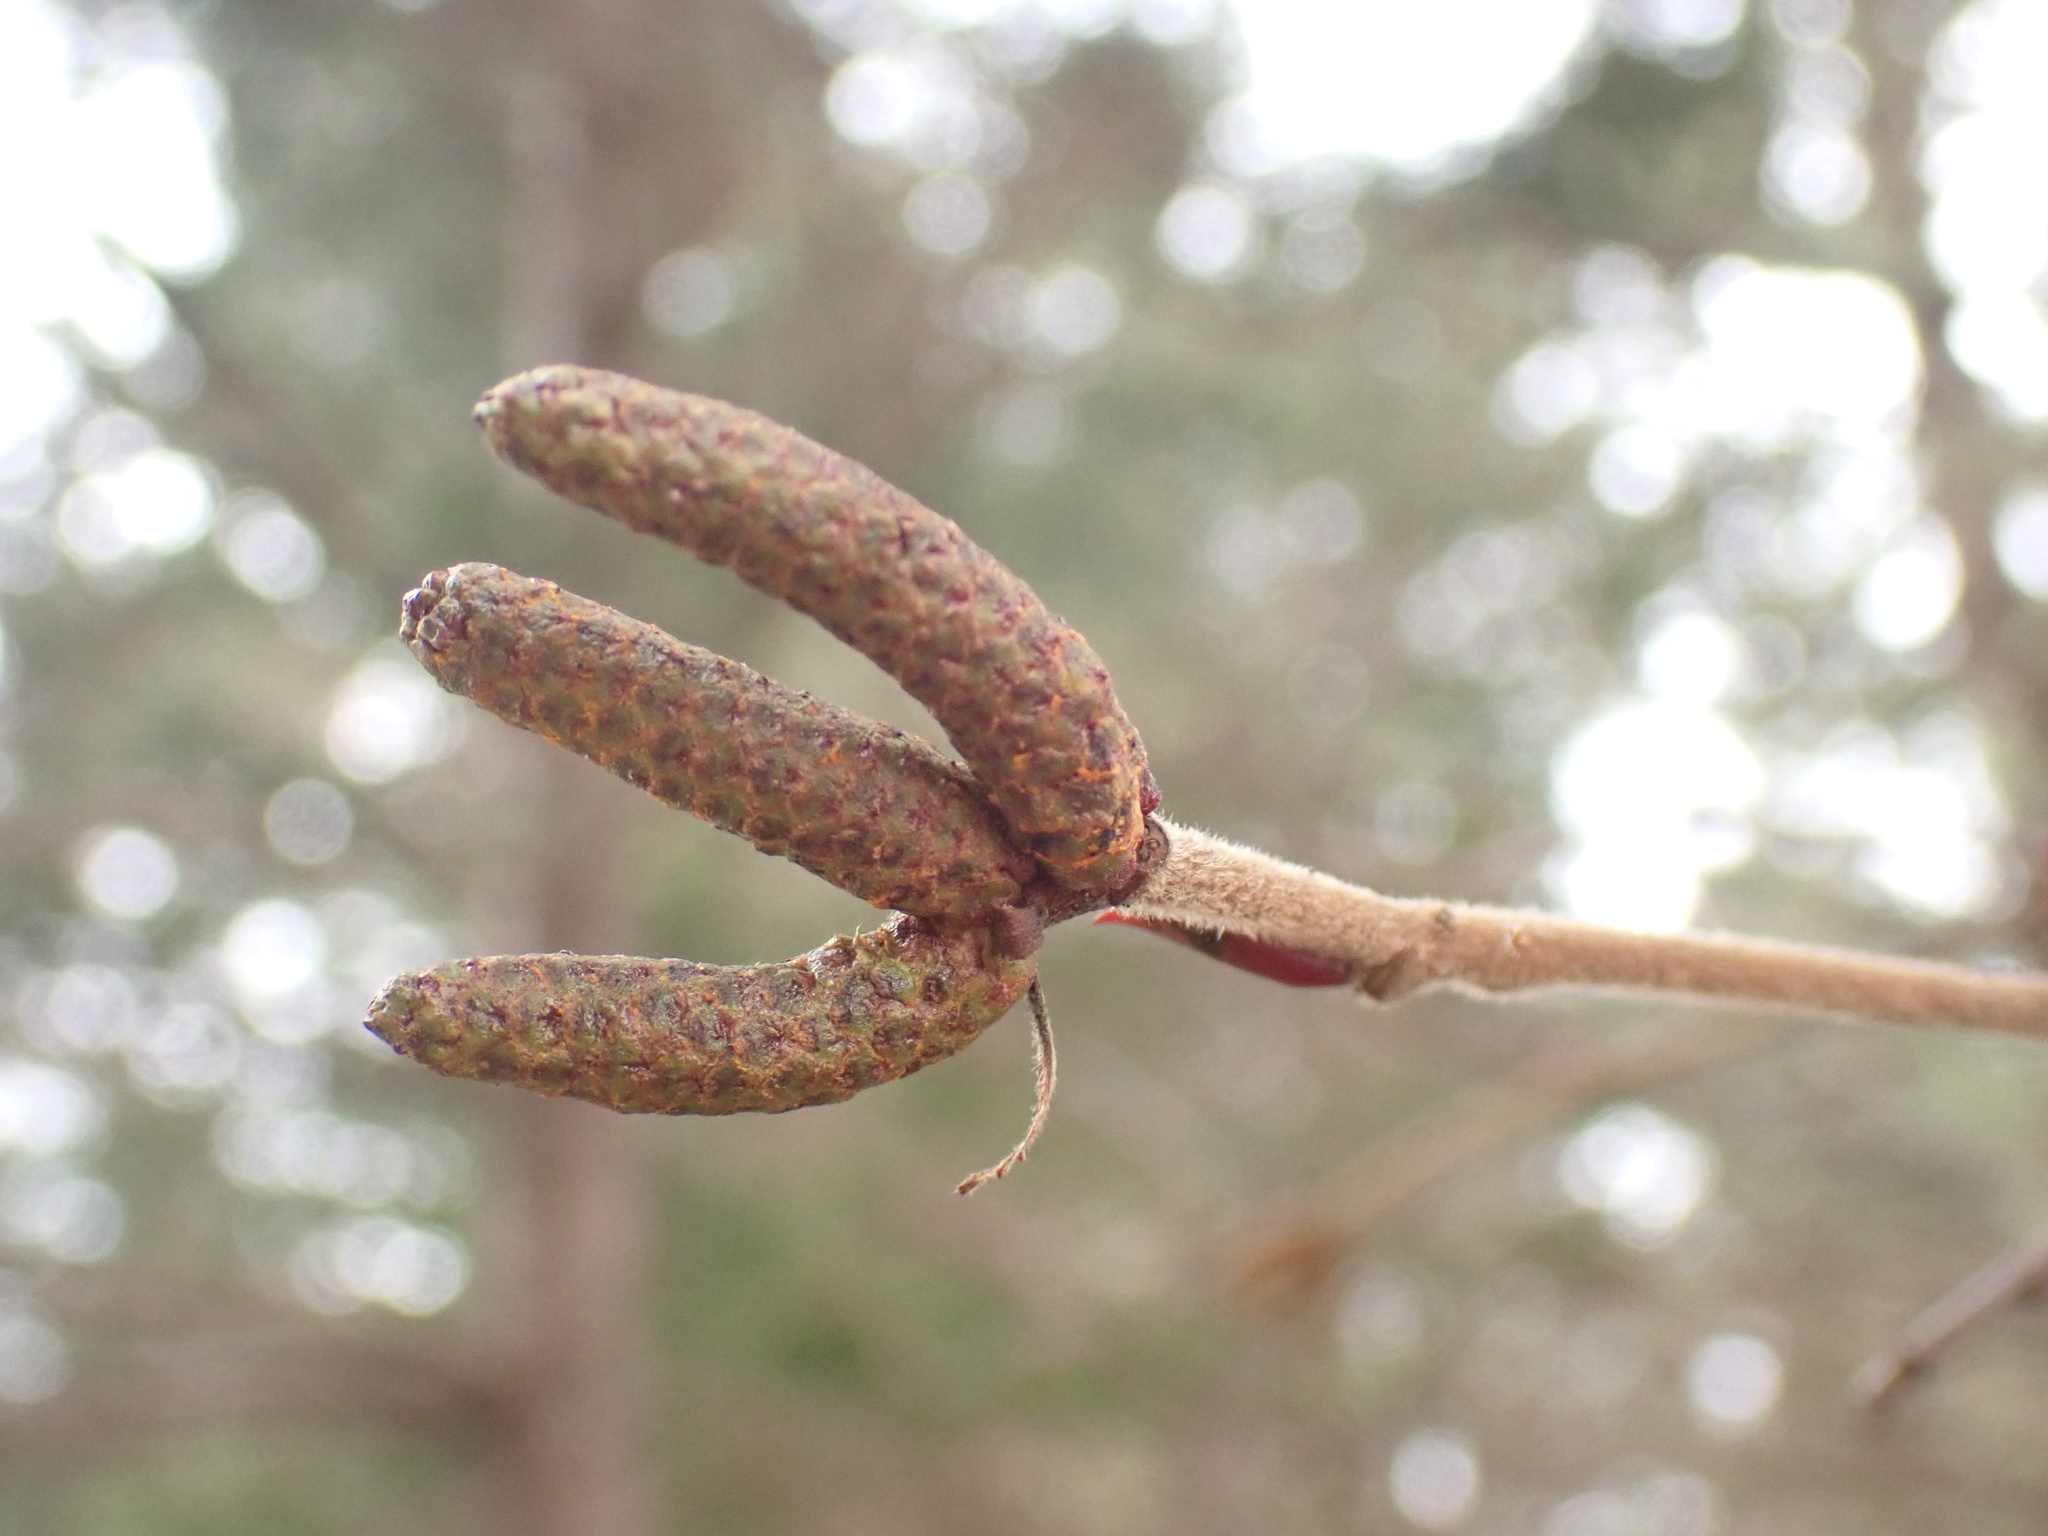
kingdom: Plantae
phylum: Tracheophyta
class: Magnoliopsida
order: Fagales
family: Betulaceae
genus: Alnus
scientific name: Alnus alnobetula
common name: Green alder
